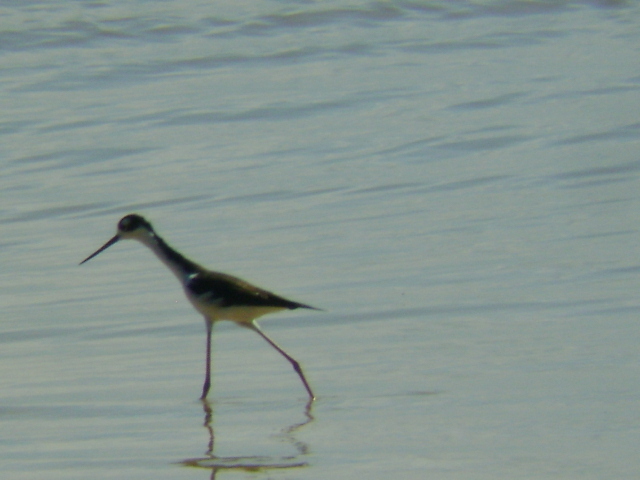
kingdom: Animalia
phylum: Chordata
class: Aves
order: Charadriiformes
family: Recurvirostridae
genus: Himantopus
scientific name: Himantopus mexicanus
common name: Black-necked stilt
